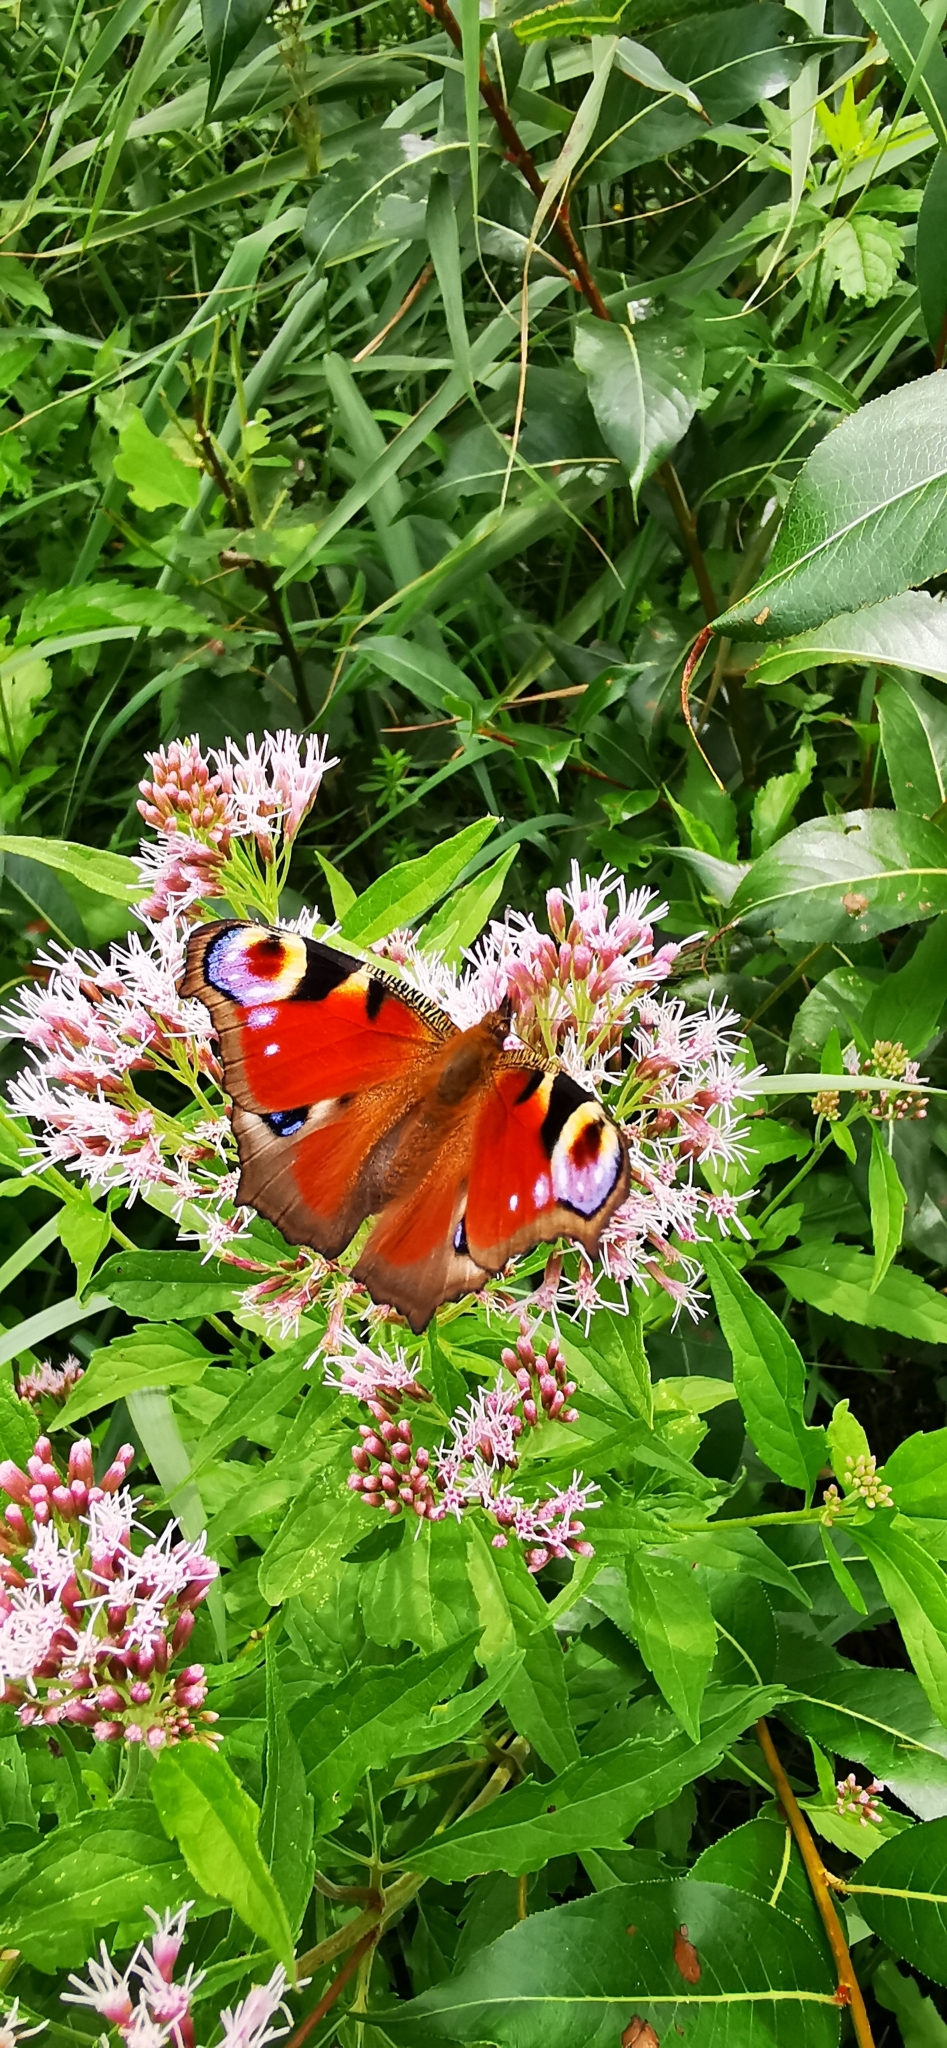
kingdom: Animalia
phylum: Arthropoda
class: Insecta
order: Lepidoptera
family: Nymphalidae
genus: Aglais
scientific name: Aglais io
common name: Peacock
